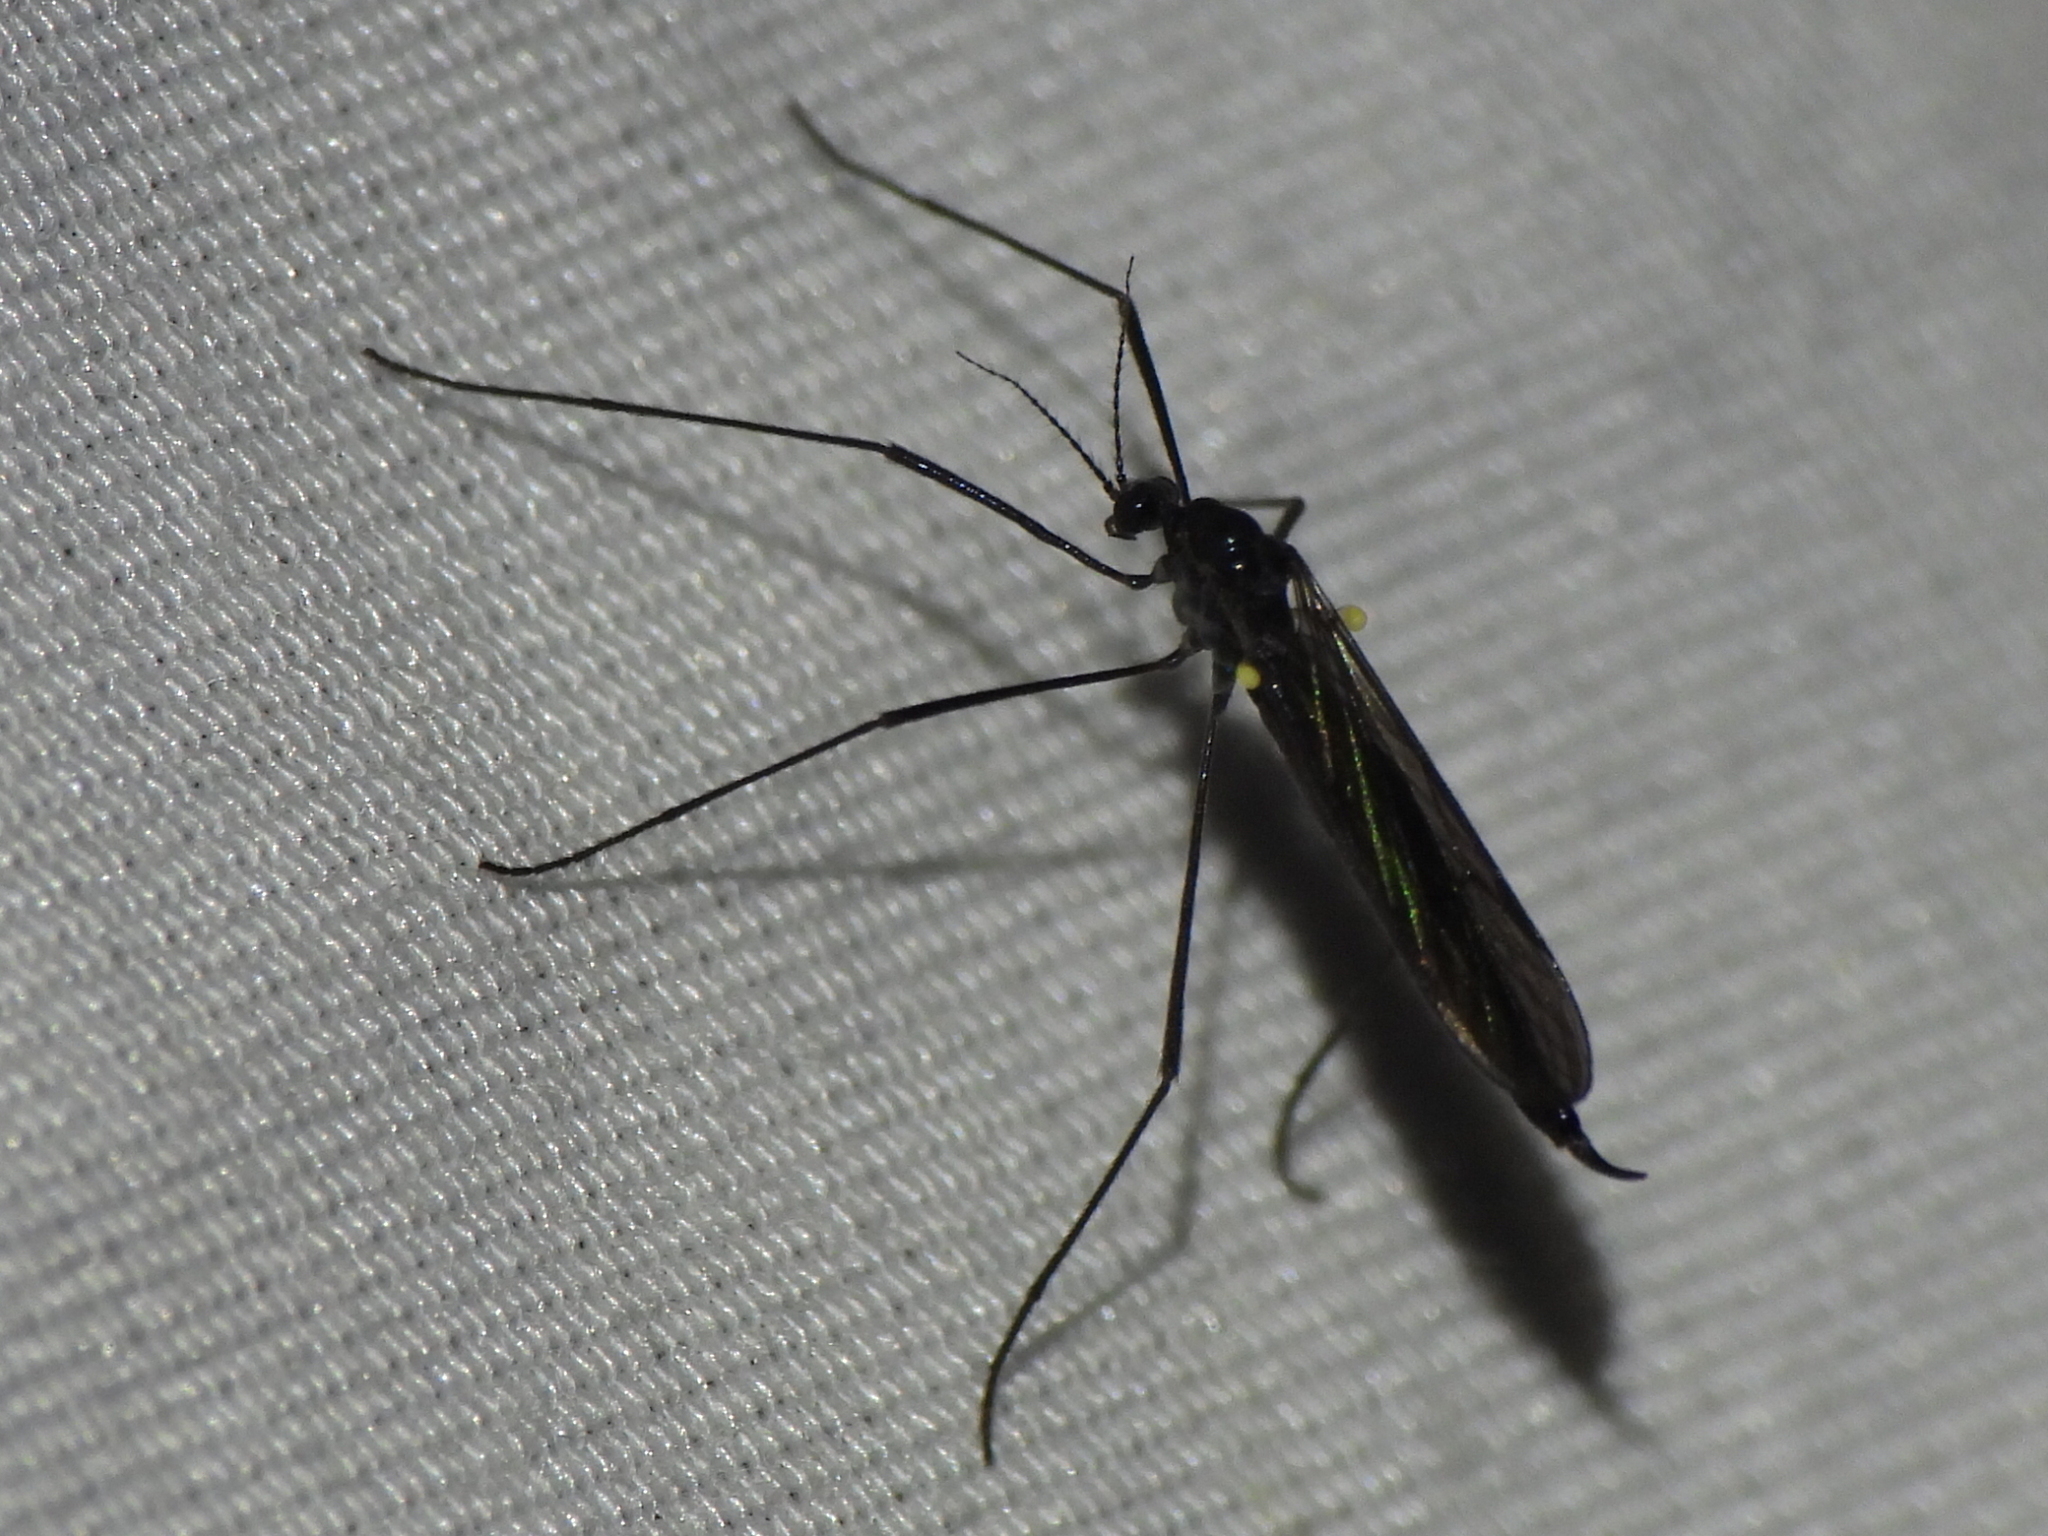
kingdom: Animalia
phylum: Arthropoda
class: Insecta
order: Diptera
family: Limoniidae
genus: Gnophomyia
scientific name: Gnophomyia tristissima
